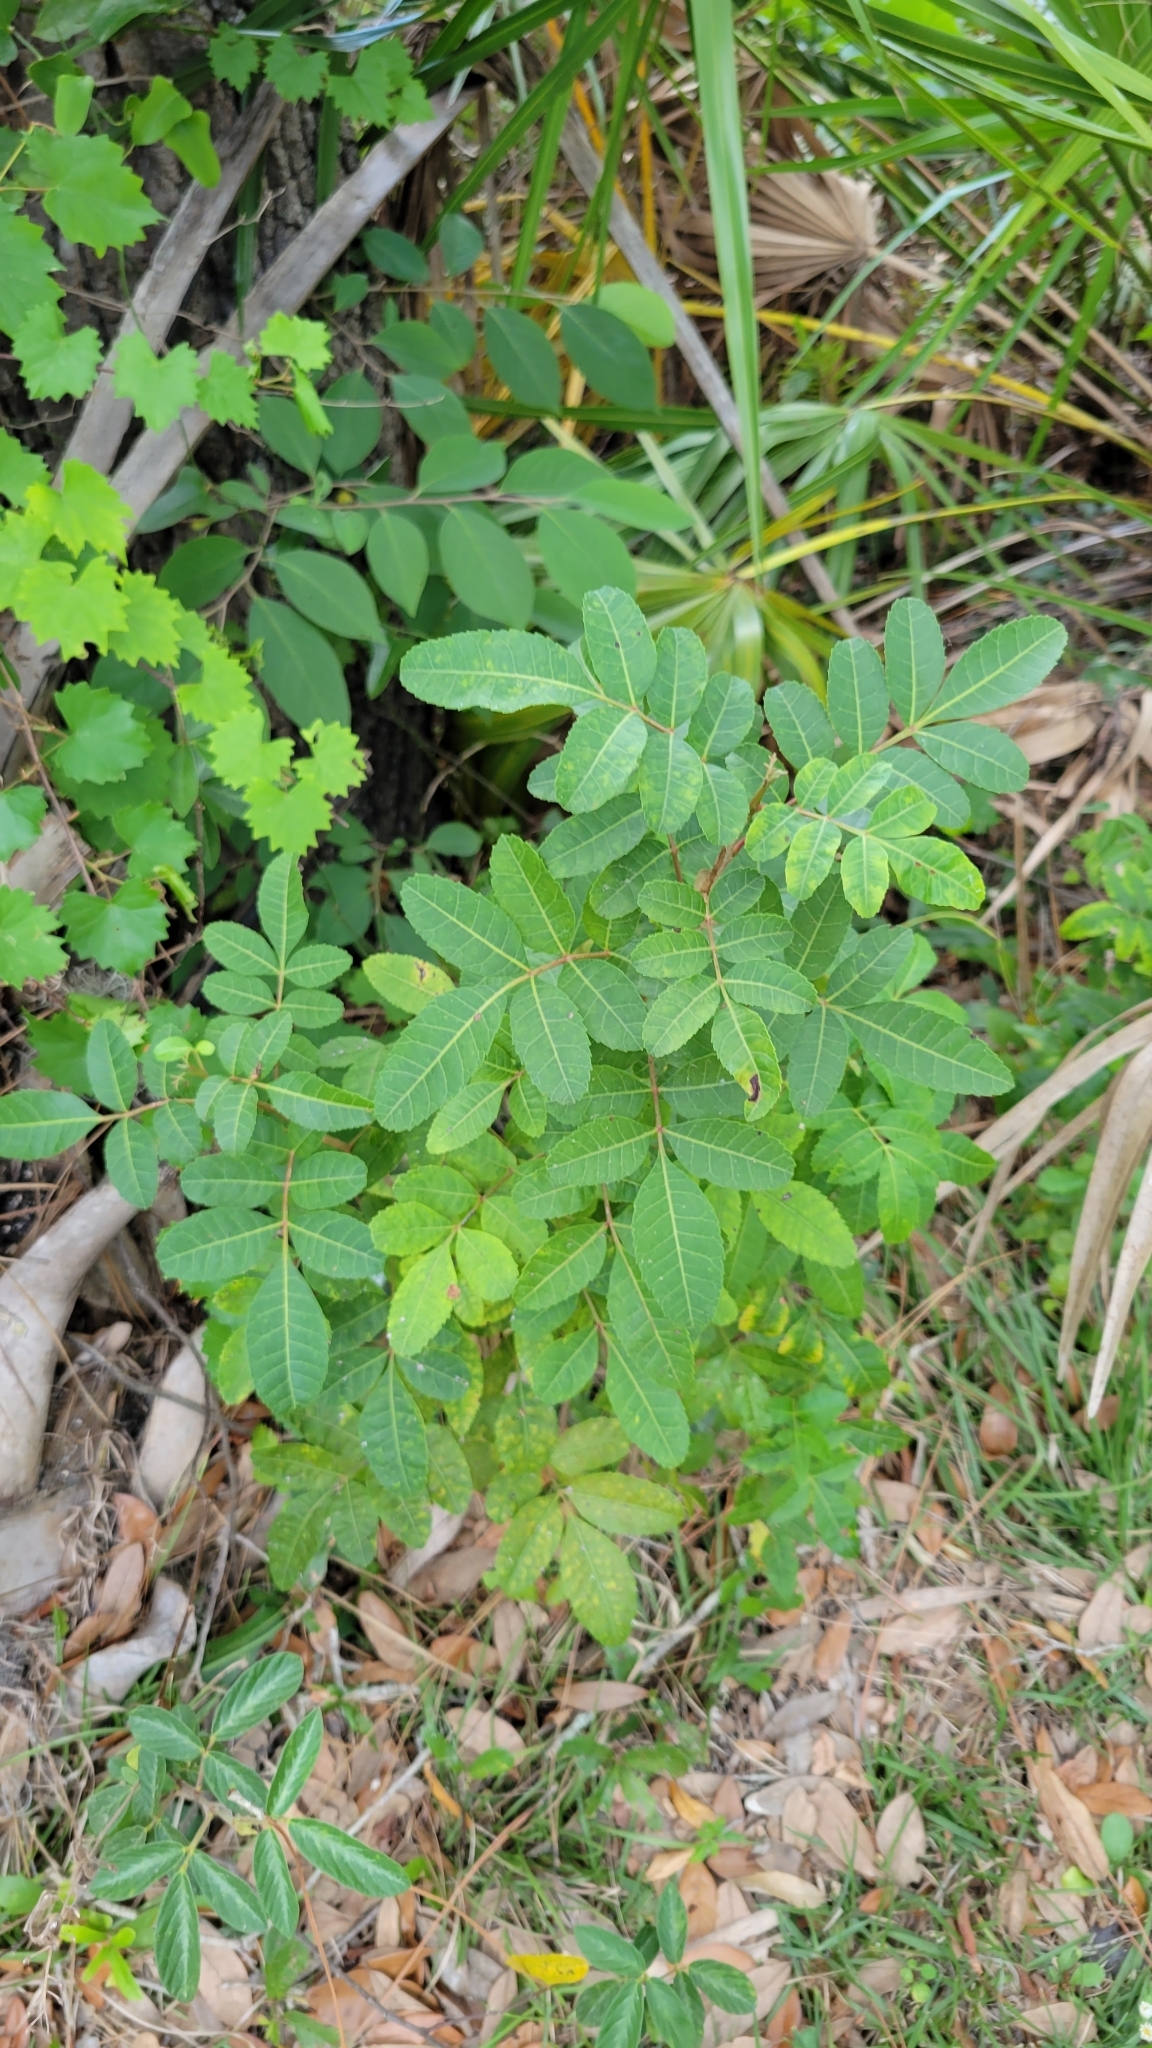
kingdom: Plantae
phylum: Tracheophyta
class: Magnoliopsida
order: Sapindales
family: Anacardiaceae
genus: Schinus
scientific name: Schinus terebinthifolia
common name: Brazilian peppertree
